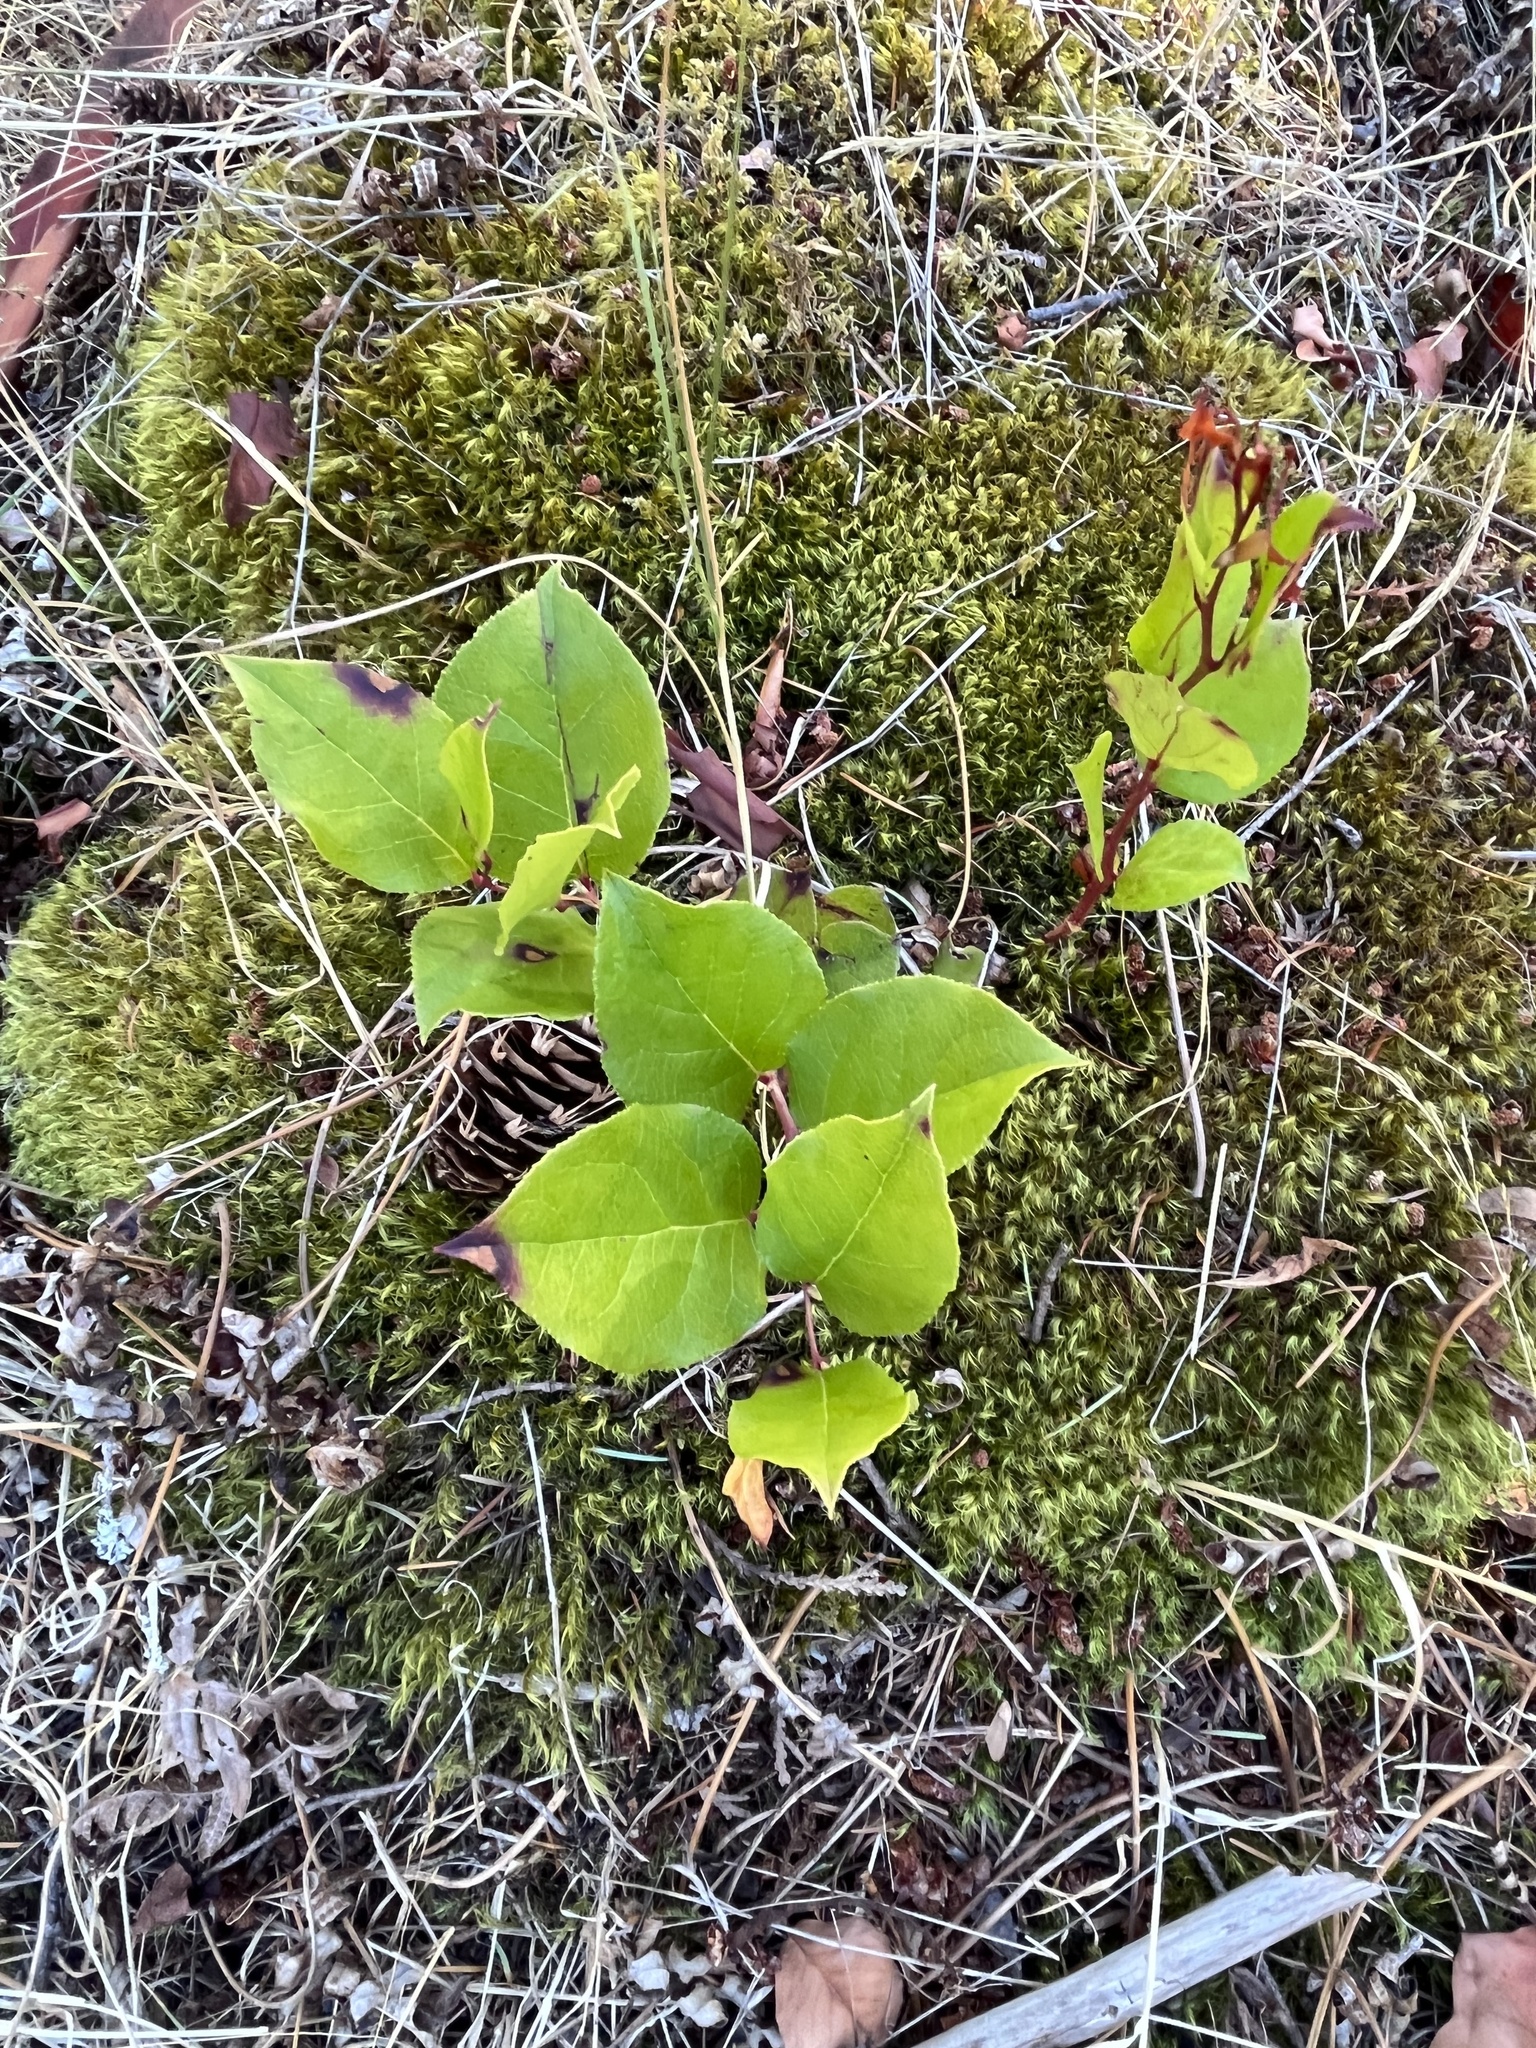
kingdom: Plantae
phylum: Tracheophyta
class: Magnoliopsida
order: Ericales
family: Ericaceae
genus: Gaultheria
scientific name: Gaultheria shallon
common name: Shallon
